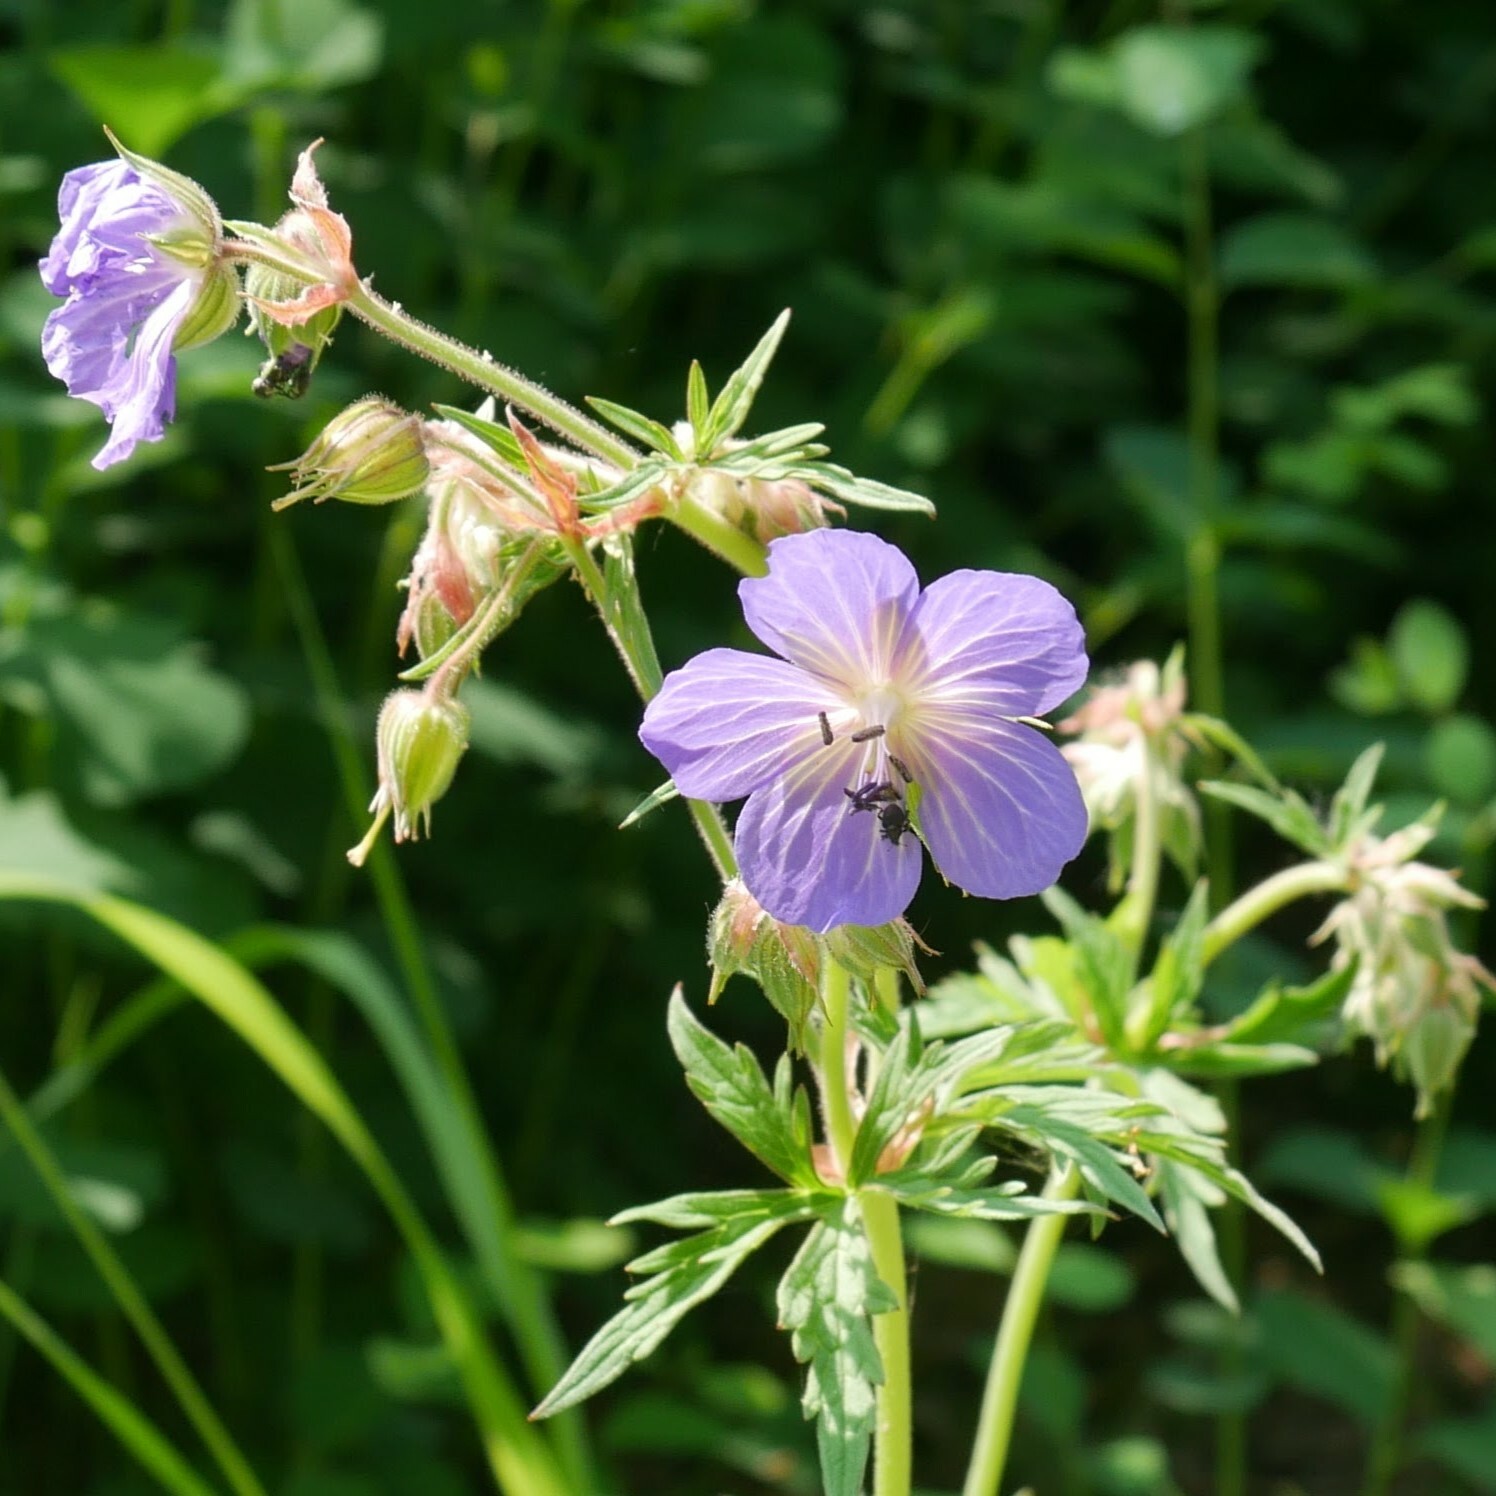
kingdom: Plantae
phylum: Tracheophyta
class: Magnoliopsida
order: Geraniales
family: Geraniaceae
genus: Geranium
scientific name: Geranium pratense
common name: Meadow crane's-bill
